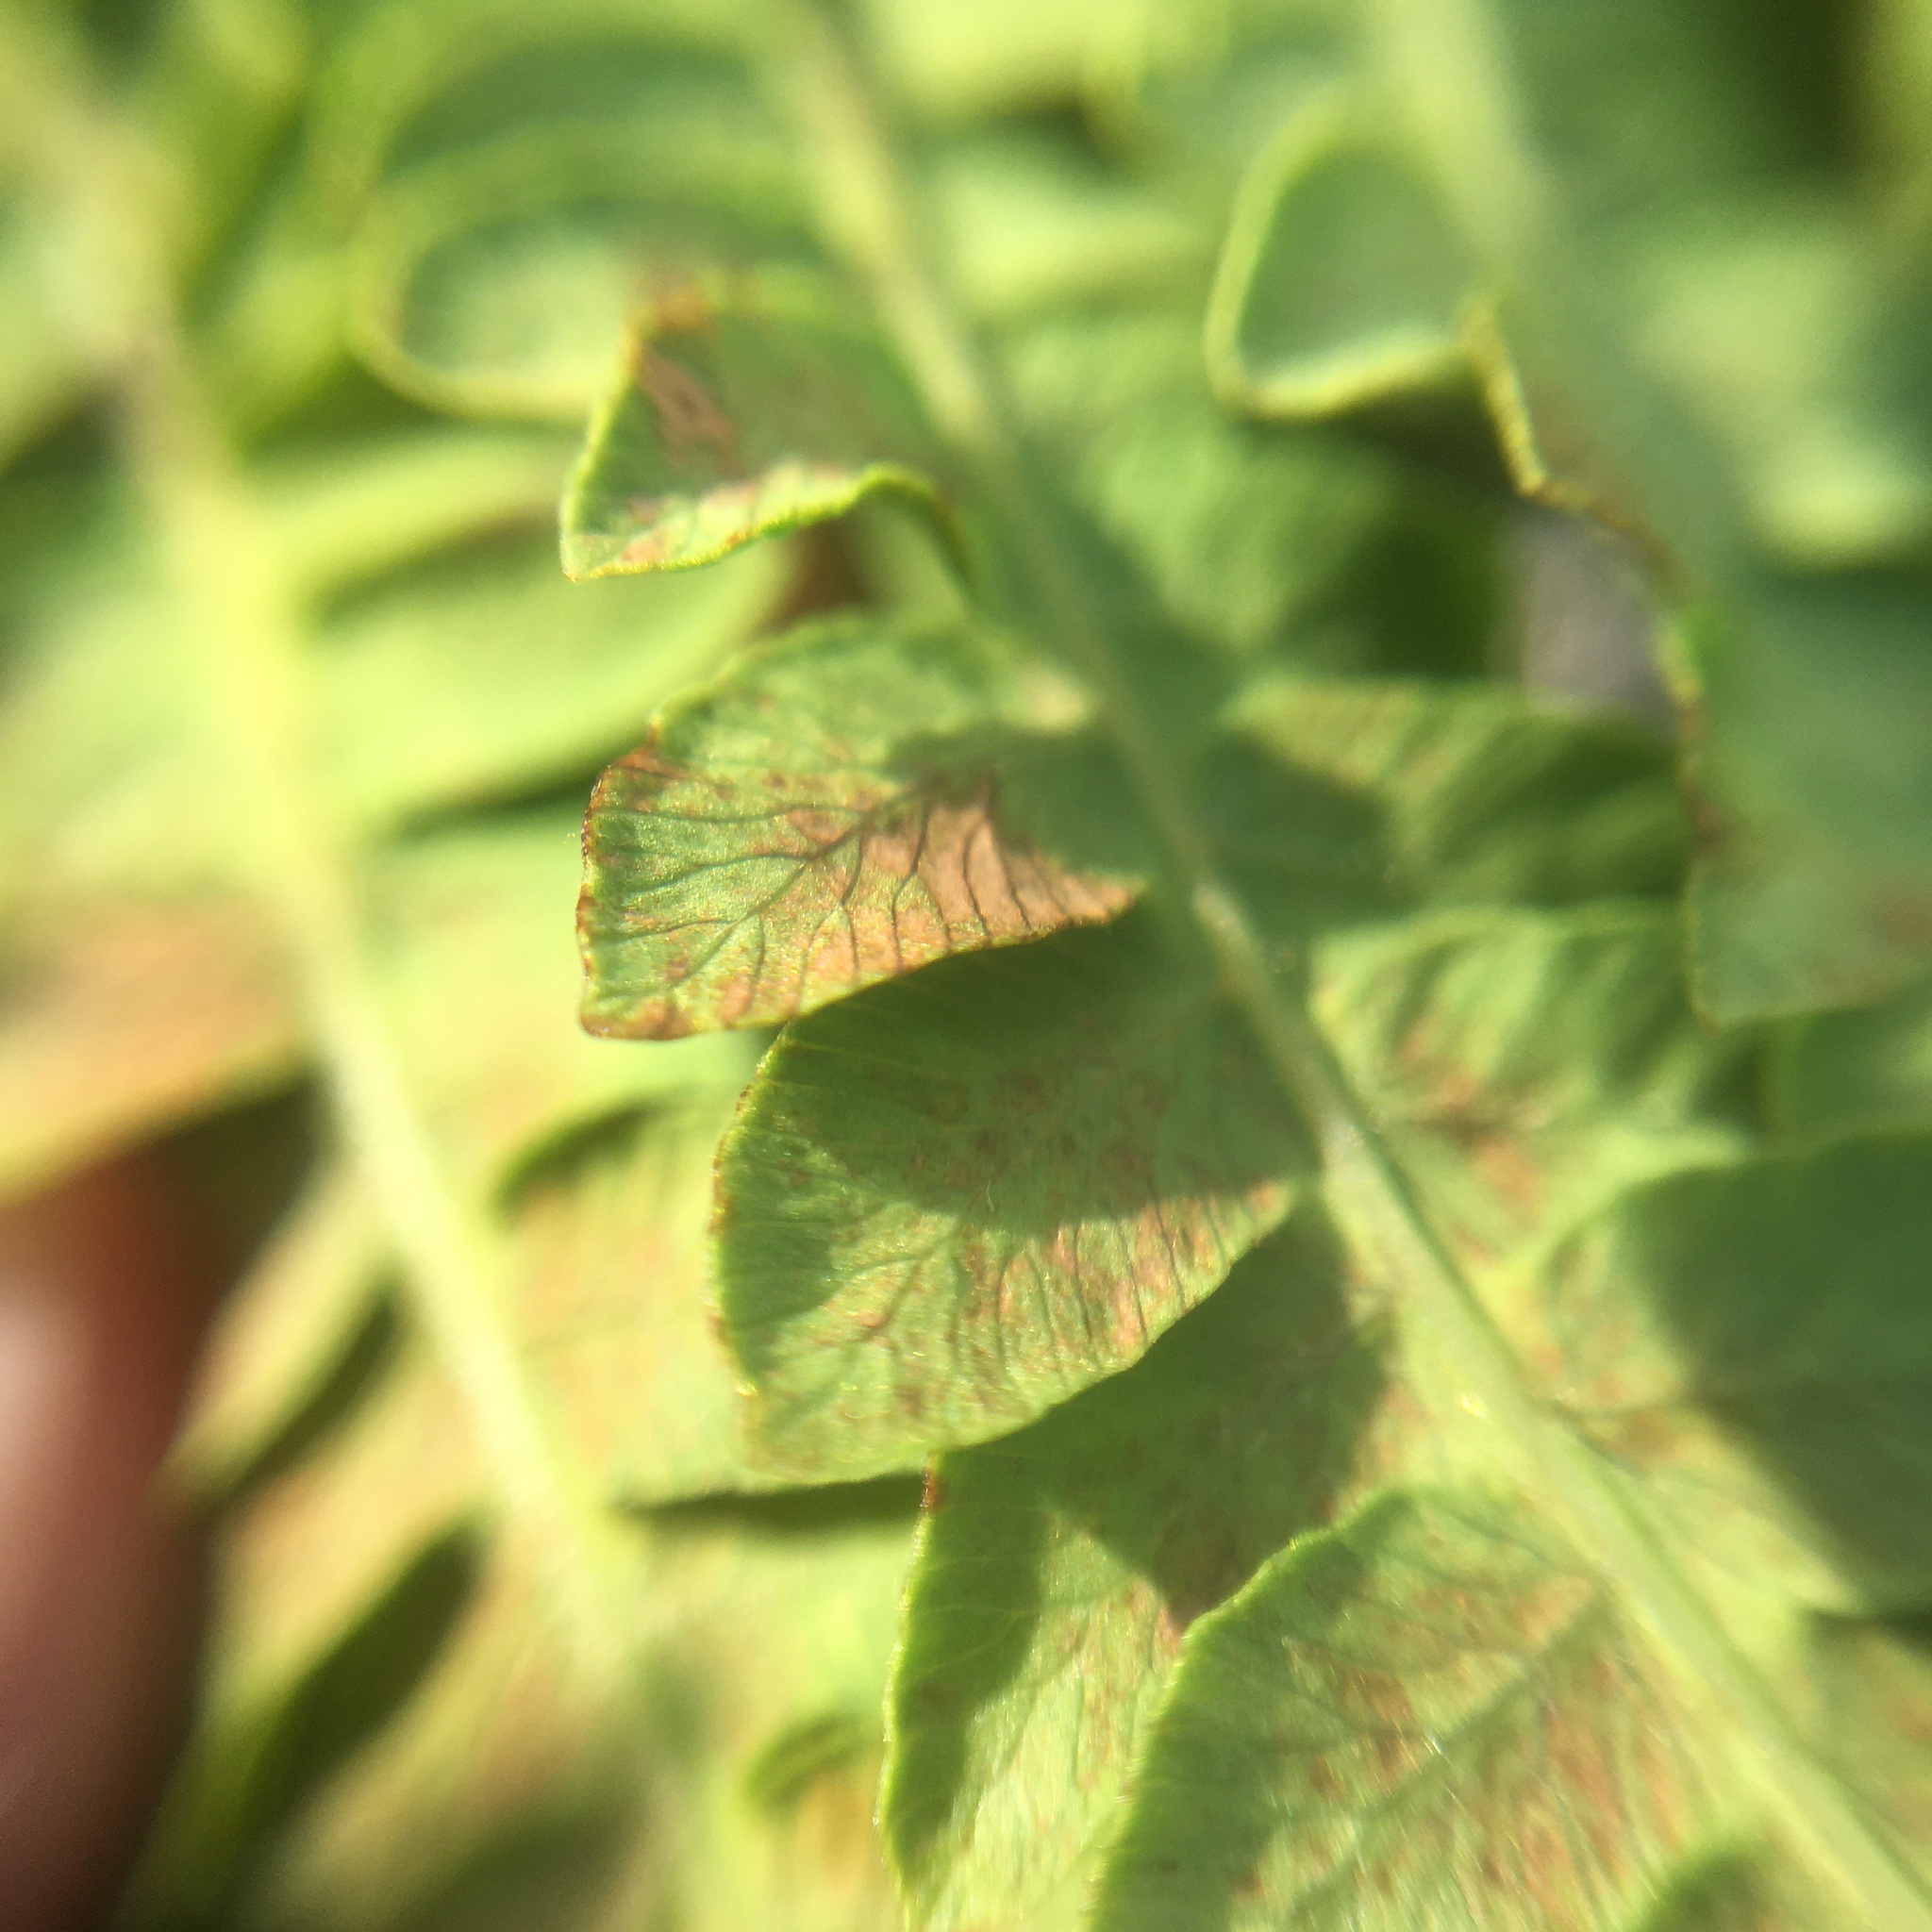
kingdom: Plantae
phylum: Tracheophyta
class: Polypodiopsida
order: Polypodiales
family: Athyriaceae
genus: Athyrium
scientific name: Athyrium asplenioides
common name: Southern lady fern
